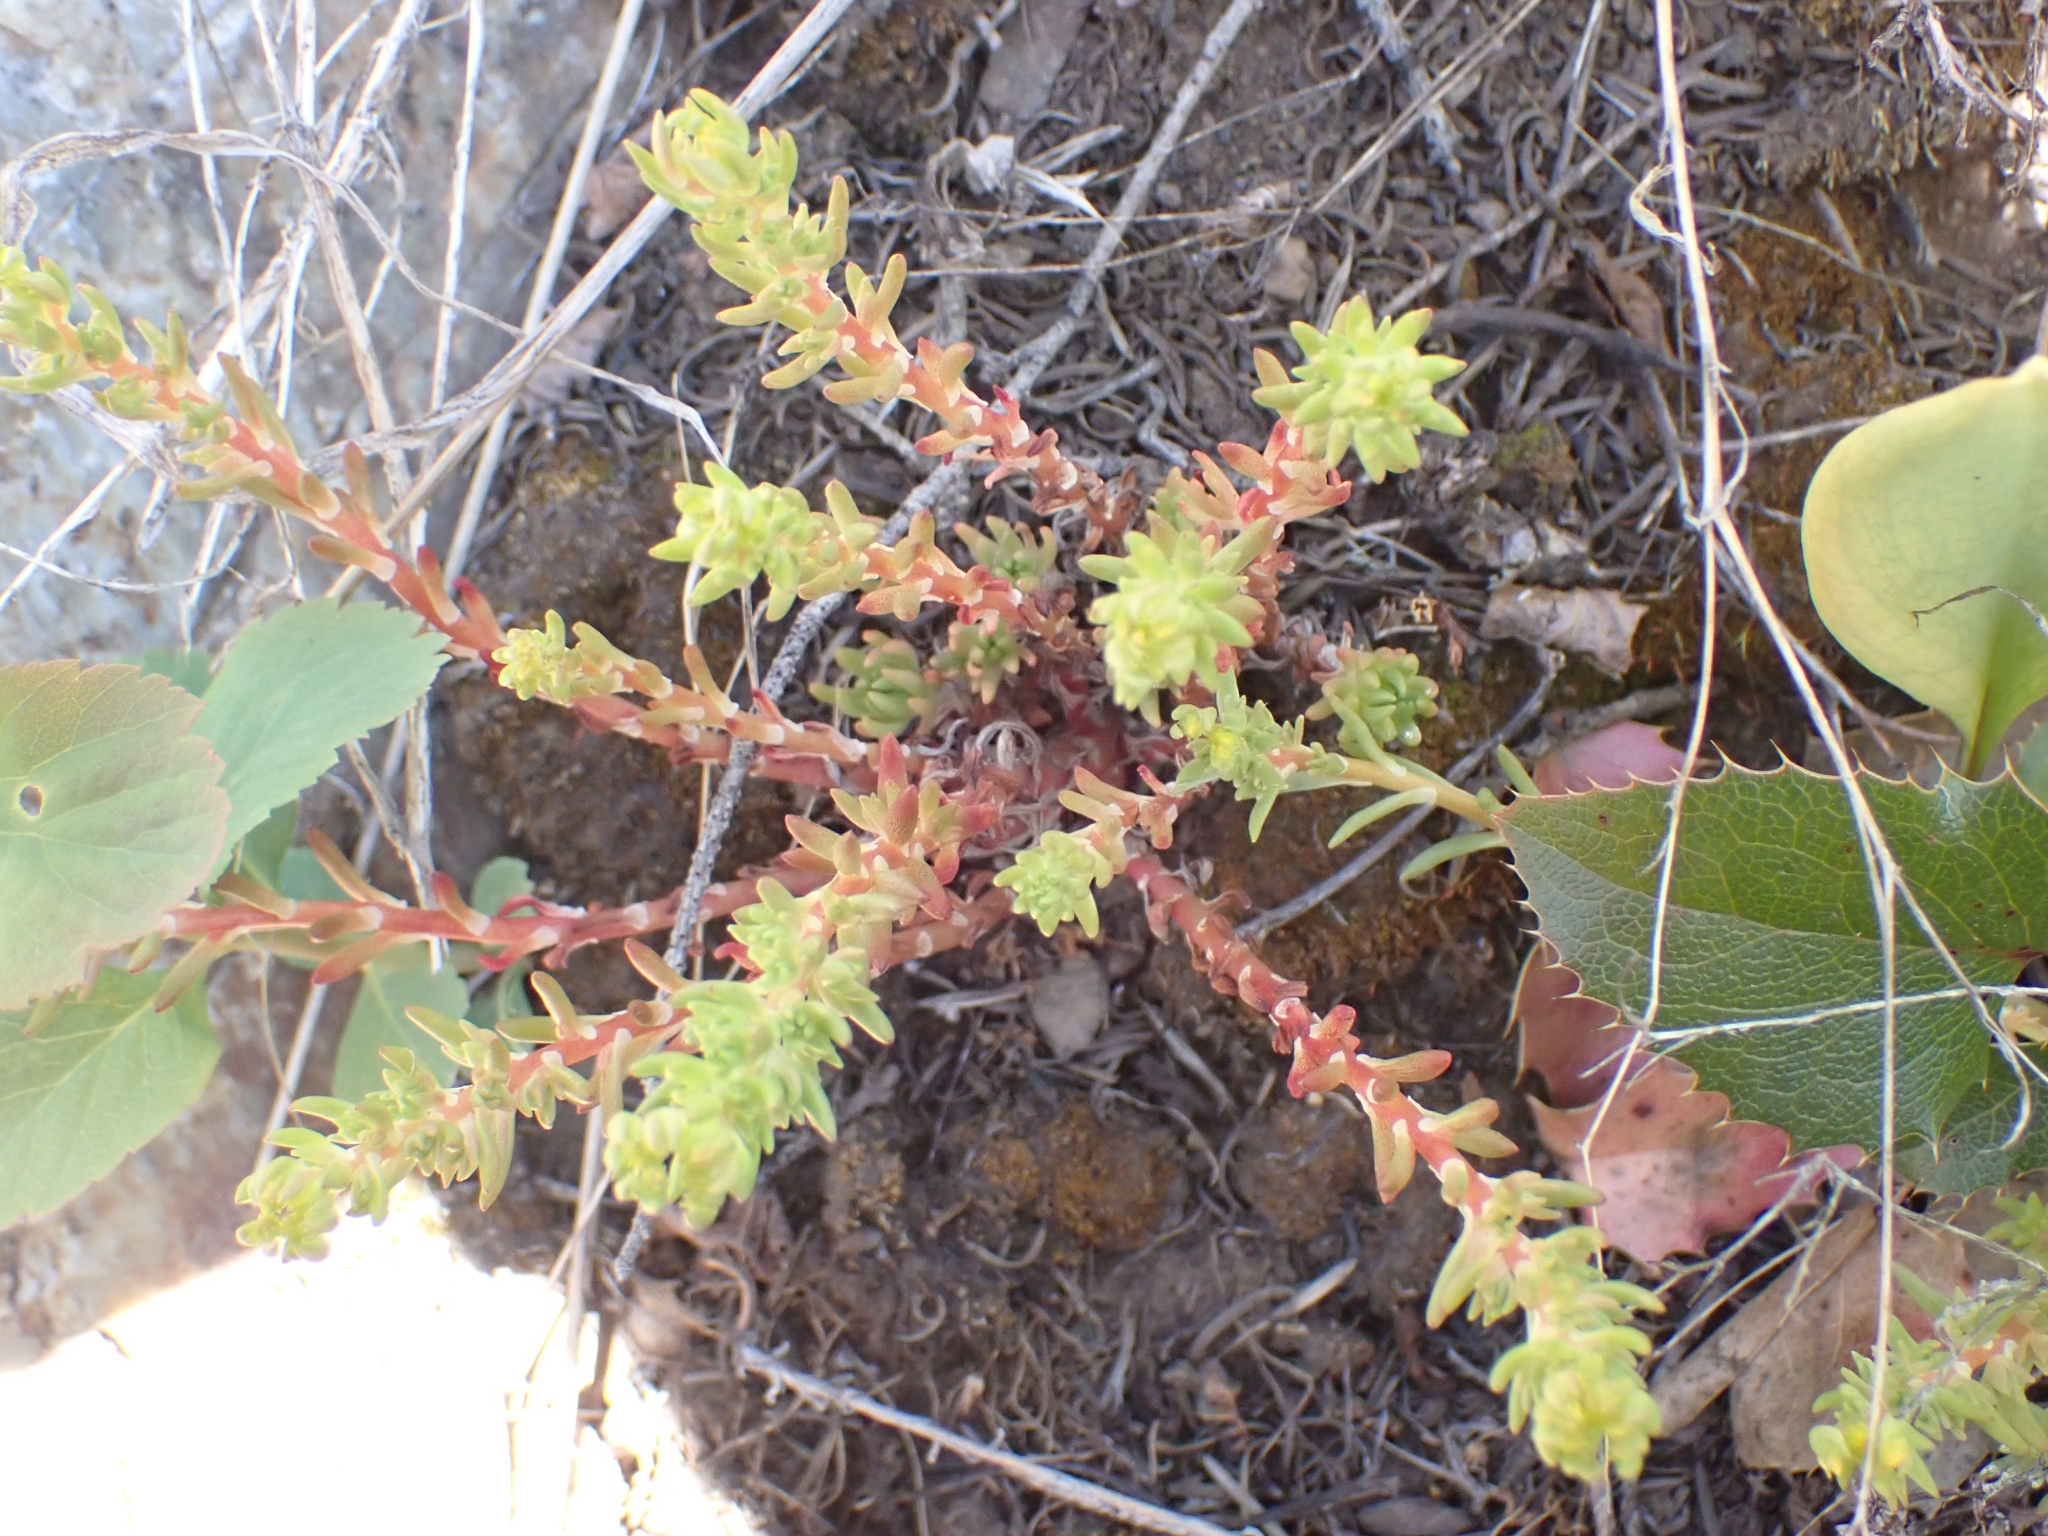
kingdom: Plantae
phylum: Tracheophyta
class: Magnoliopsida
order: Saxifragales
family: Crassulaceae
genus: Sedum
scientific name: Sedum stenopetalum
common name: Narrow-petaled stonecrop
